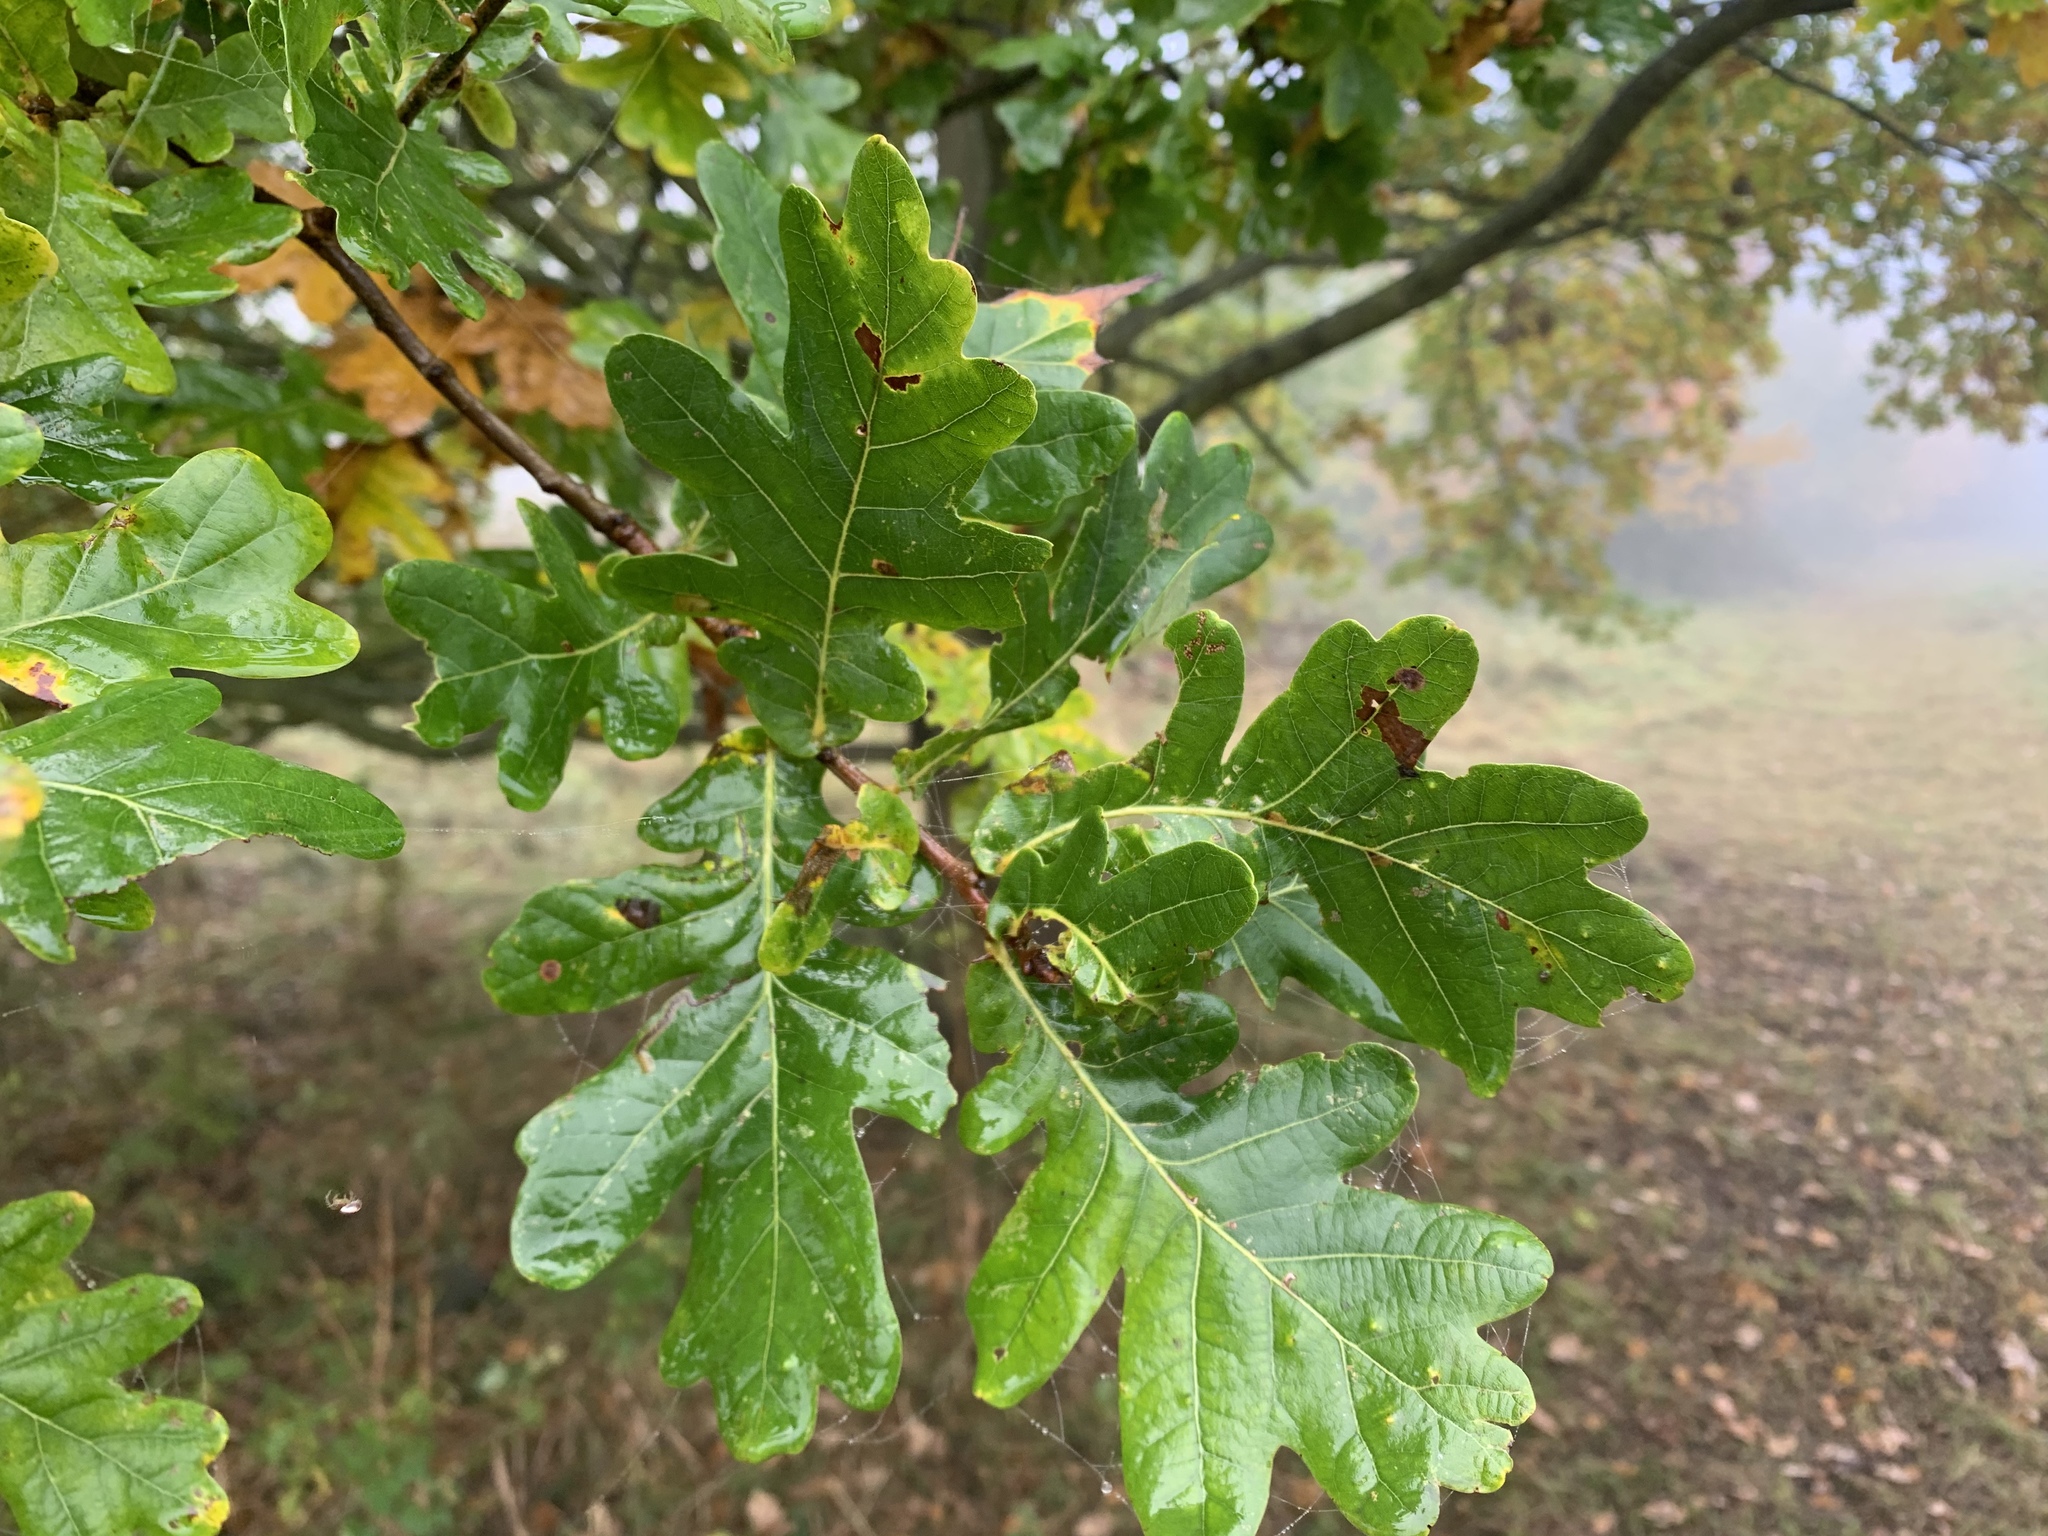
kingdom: Plantae
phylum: Tracheophyta
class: Magnoliopsida
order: Fagales
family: Fagaceae
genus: Quercus
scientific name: Quercus robur
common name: Pedunculate oak
